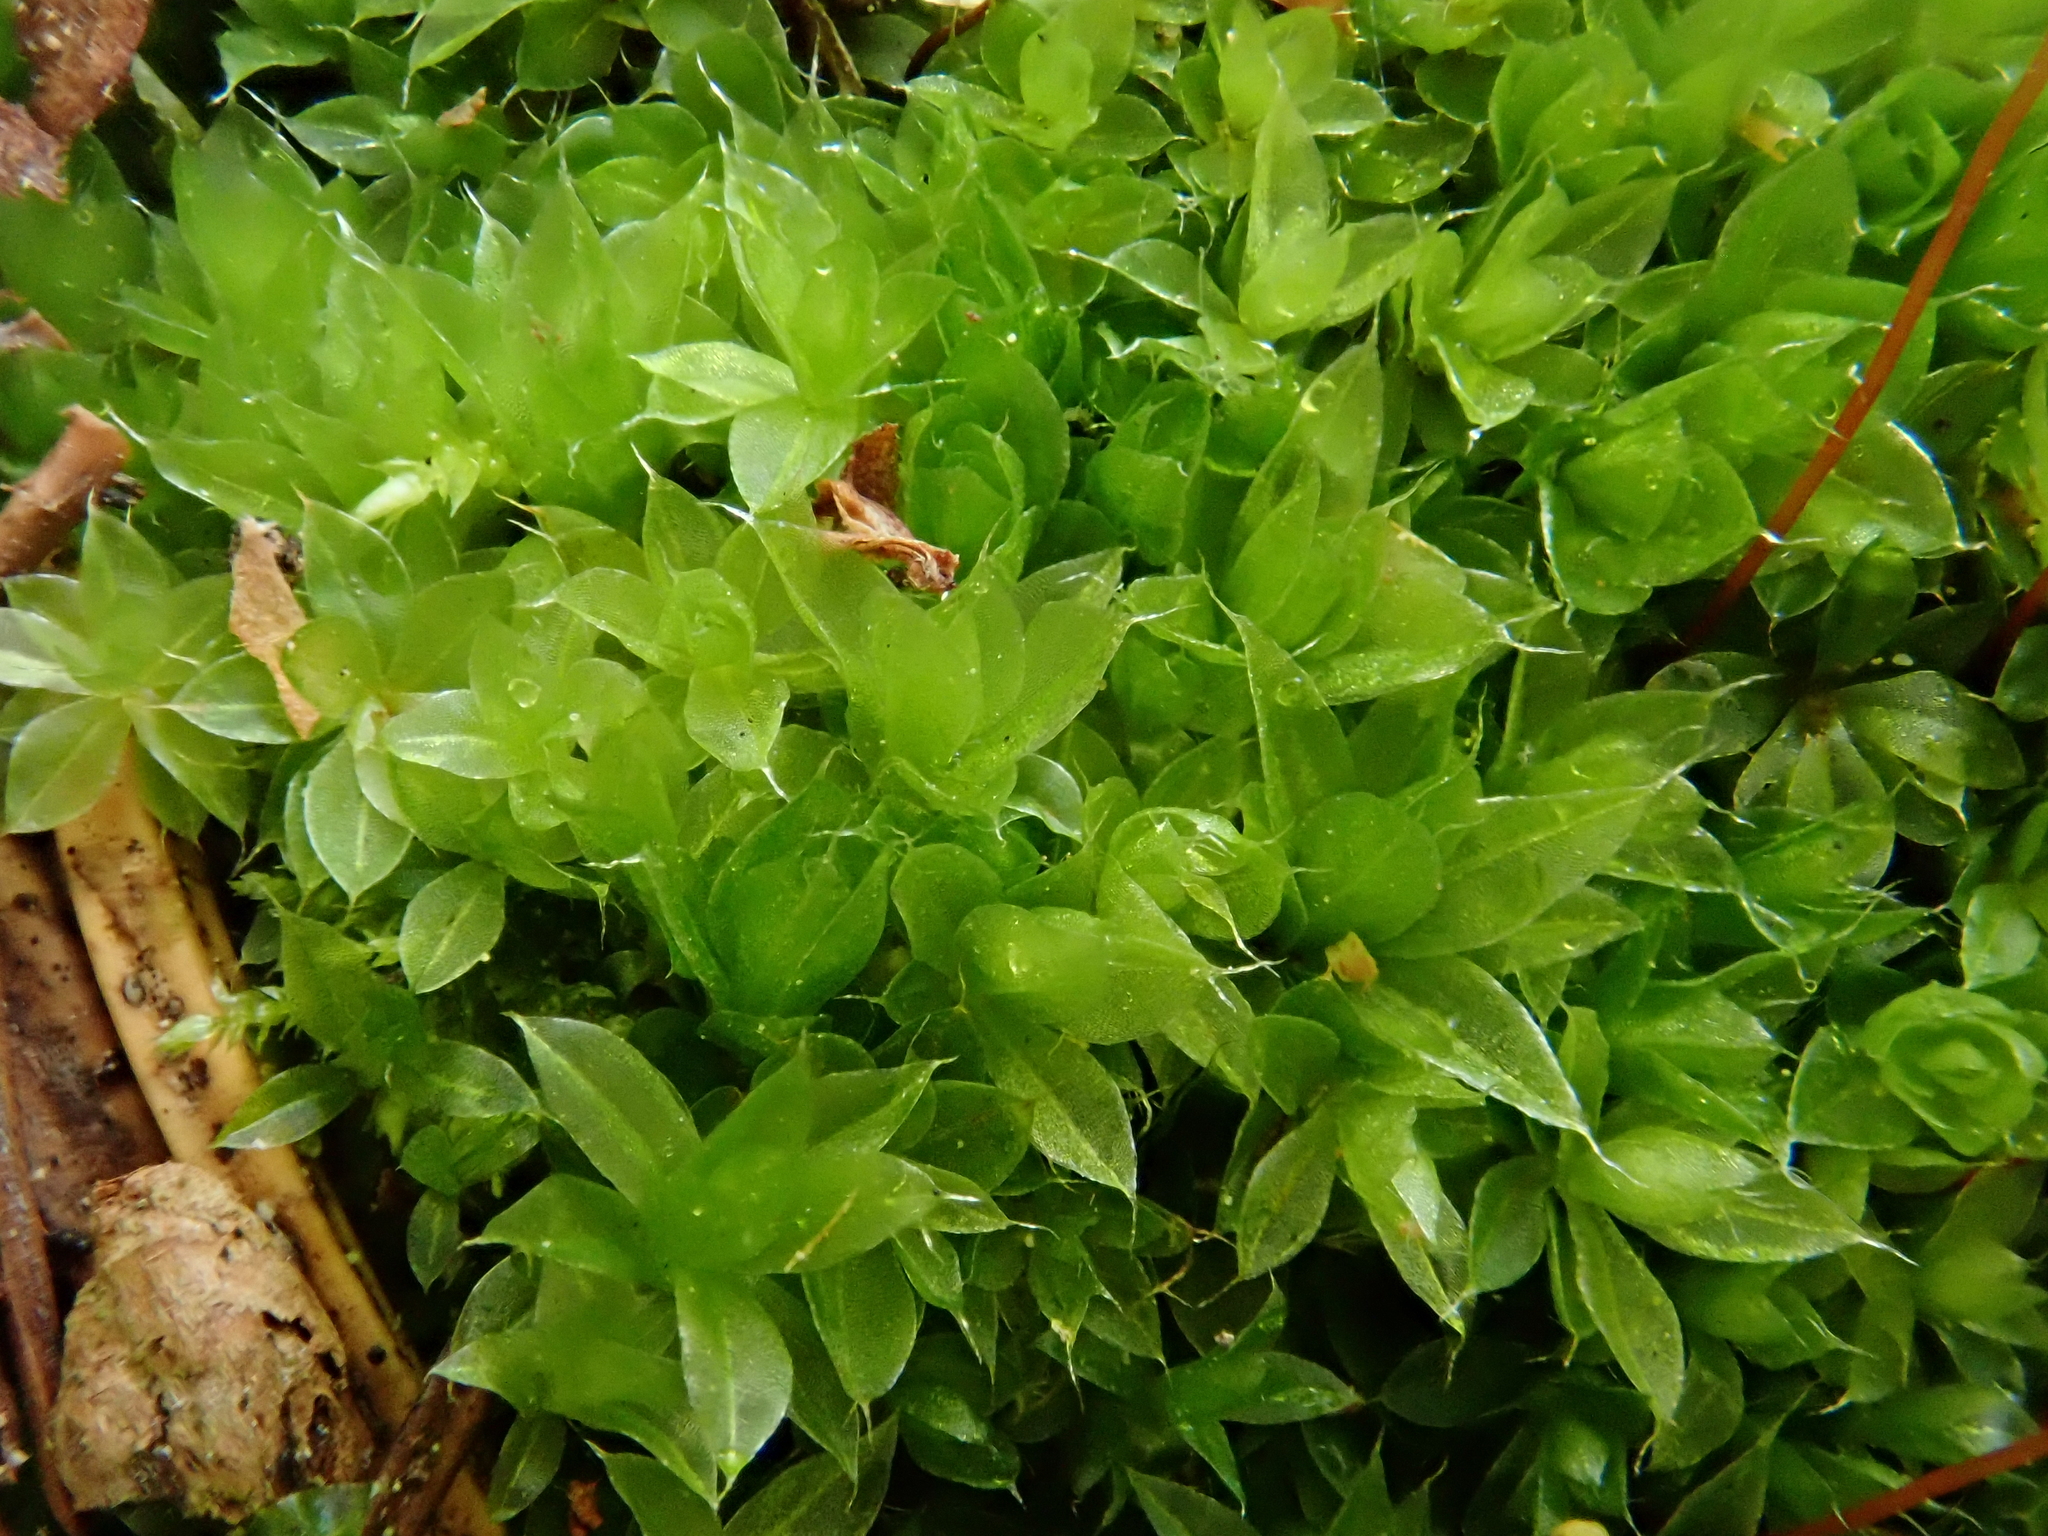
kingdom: Plantae
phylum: Bryophyta
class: Bryopsida
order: Bryales
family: Bryaceae
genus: Rosulabryum
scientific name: Rosulabryum capillare
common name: Capillary thread-moss
